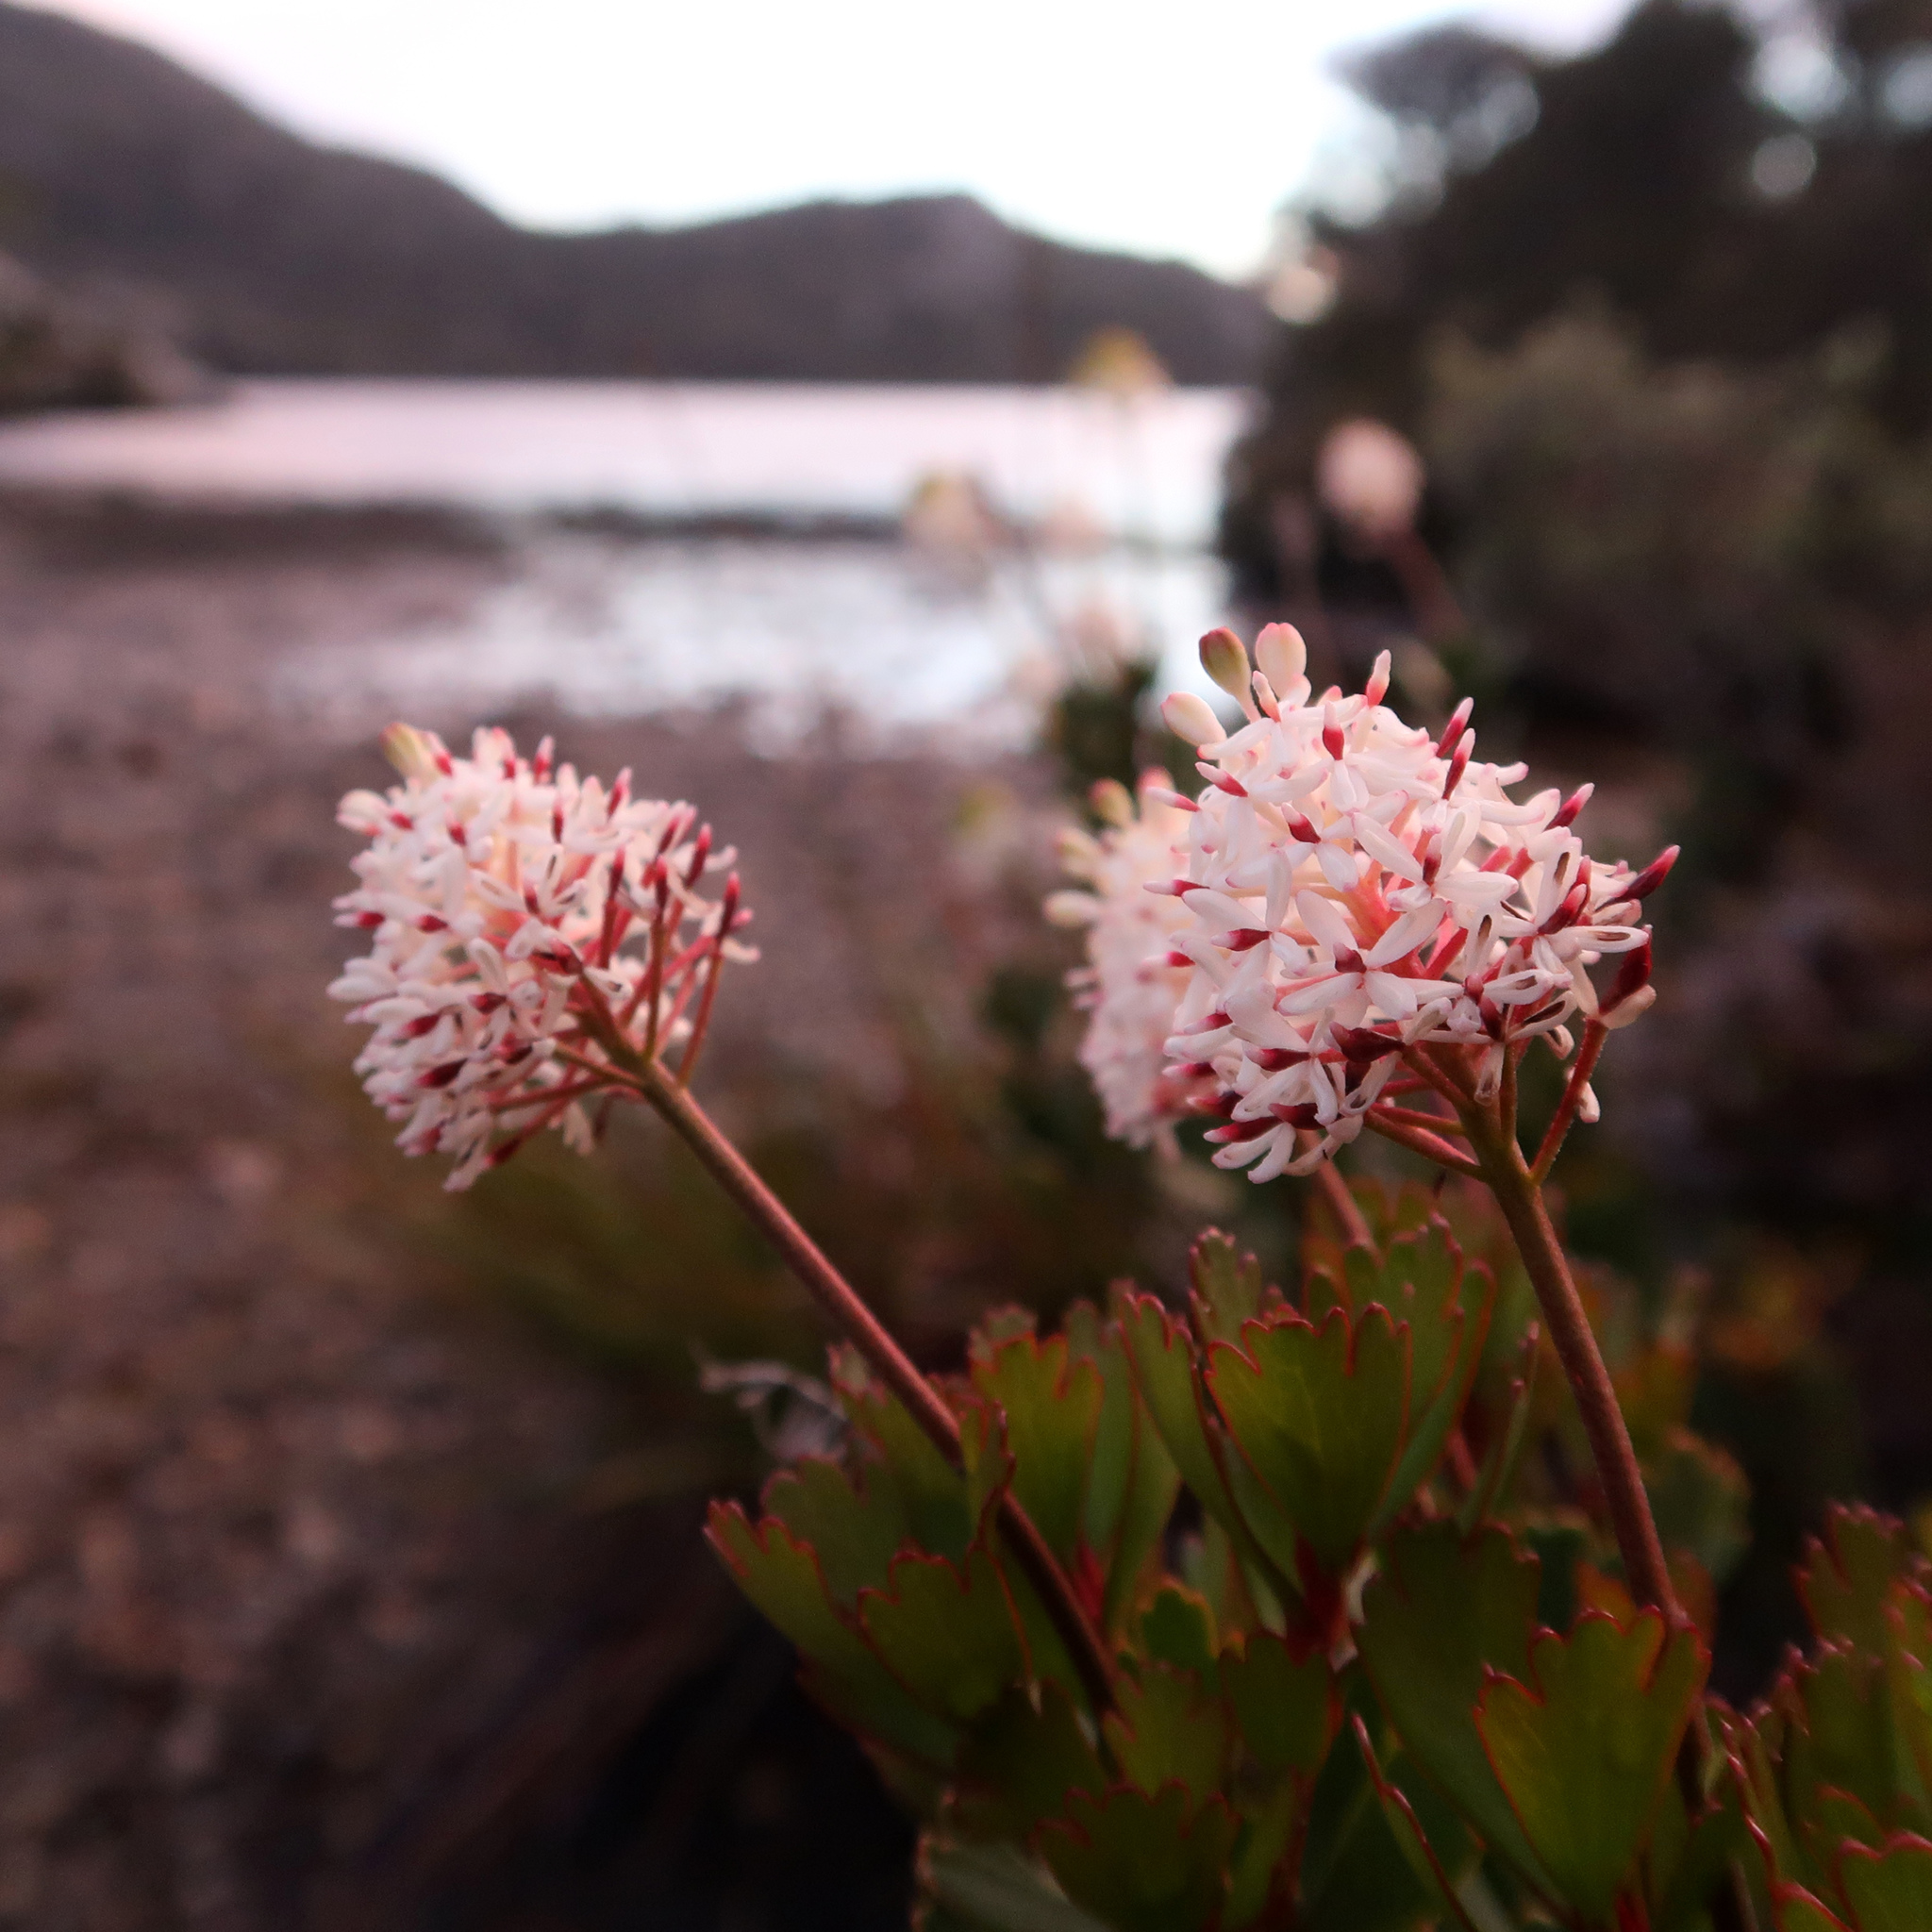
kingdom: Plantae
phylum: Tracheophyta
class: Magnoliopsida
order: Proteales
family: Proteaceae
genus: Bellendena
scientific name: Bellendena montana
